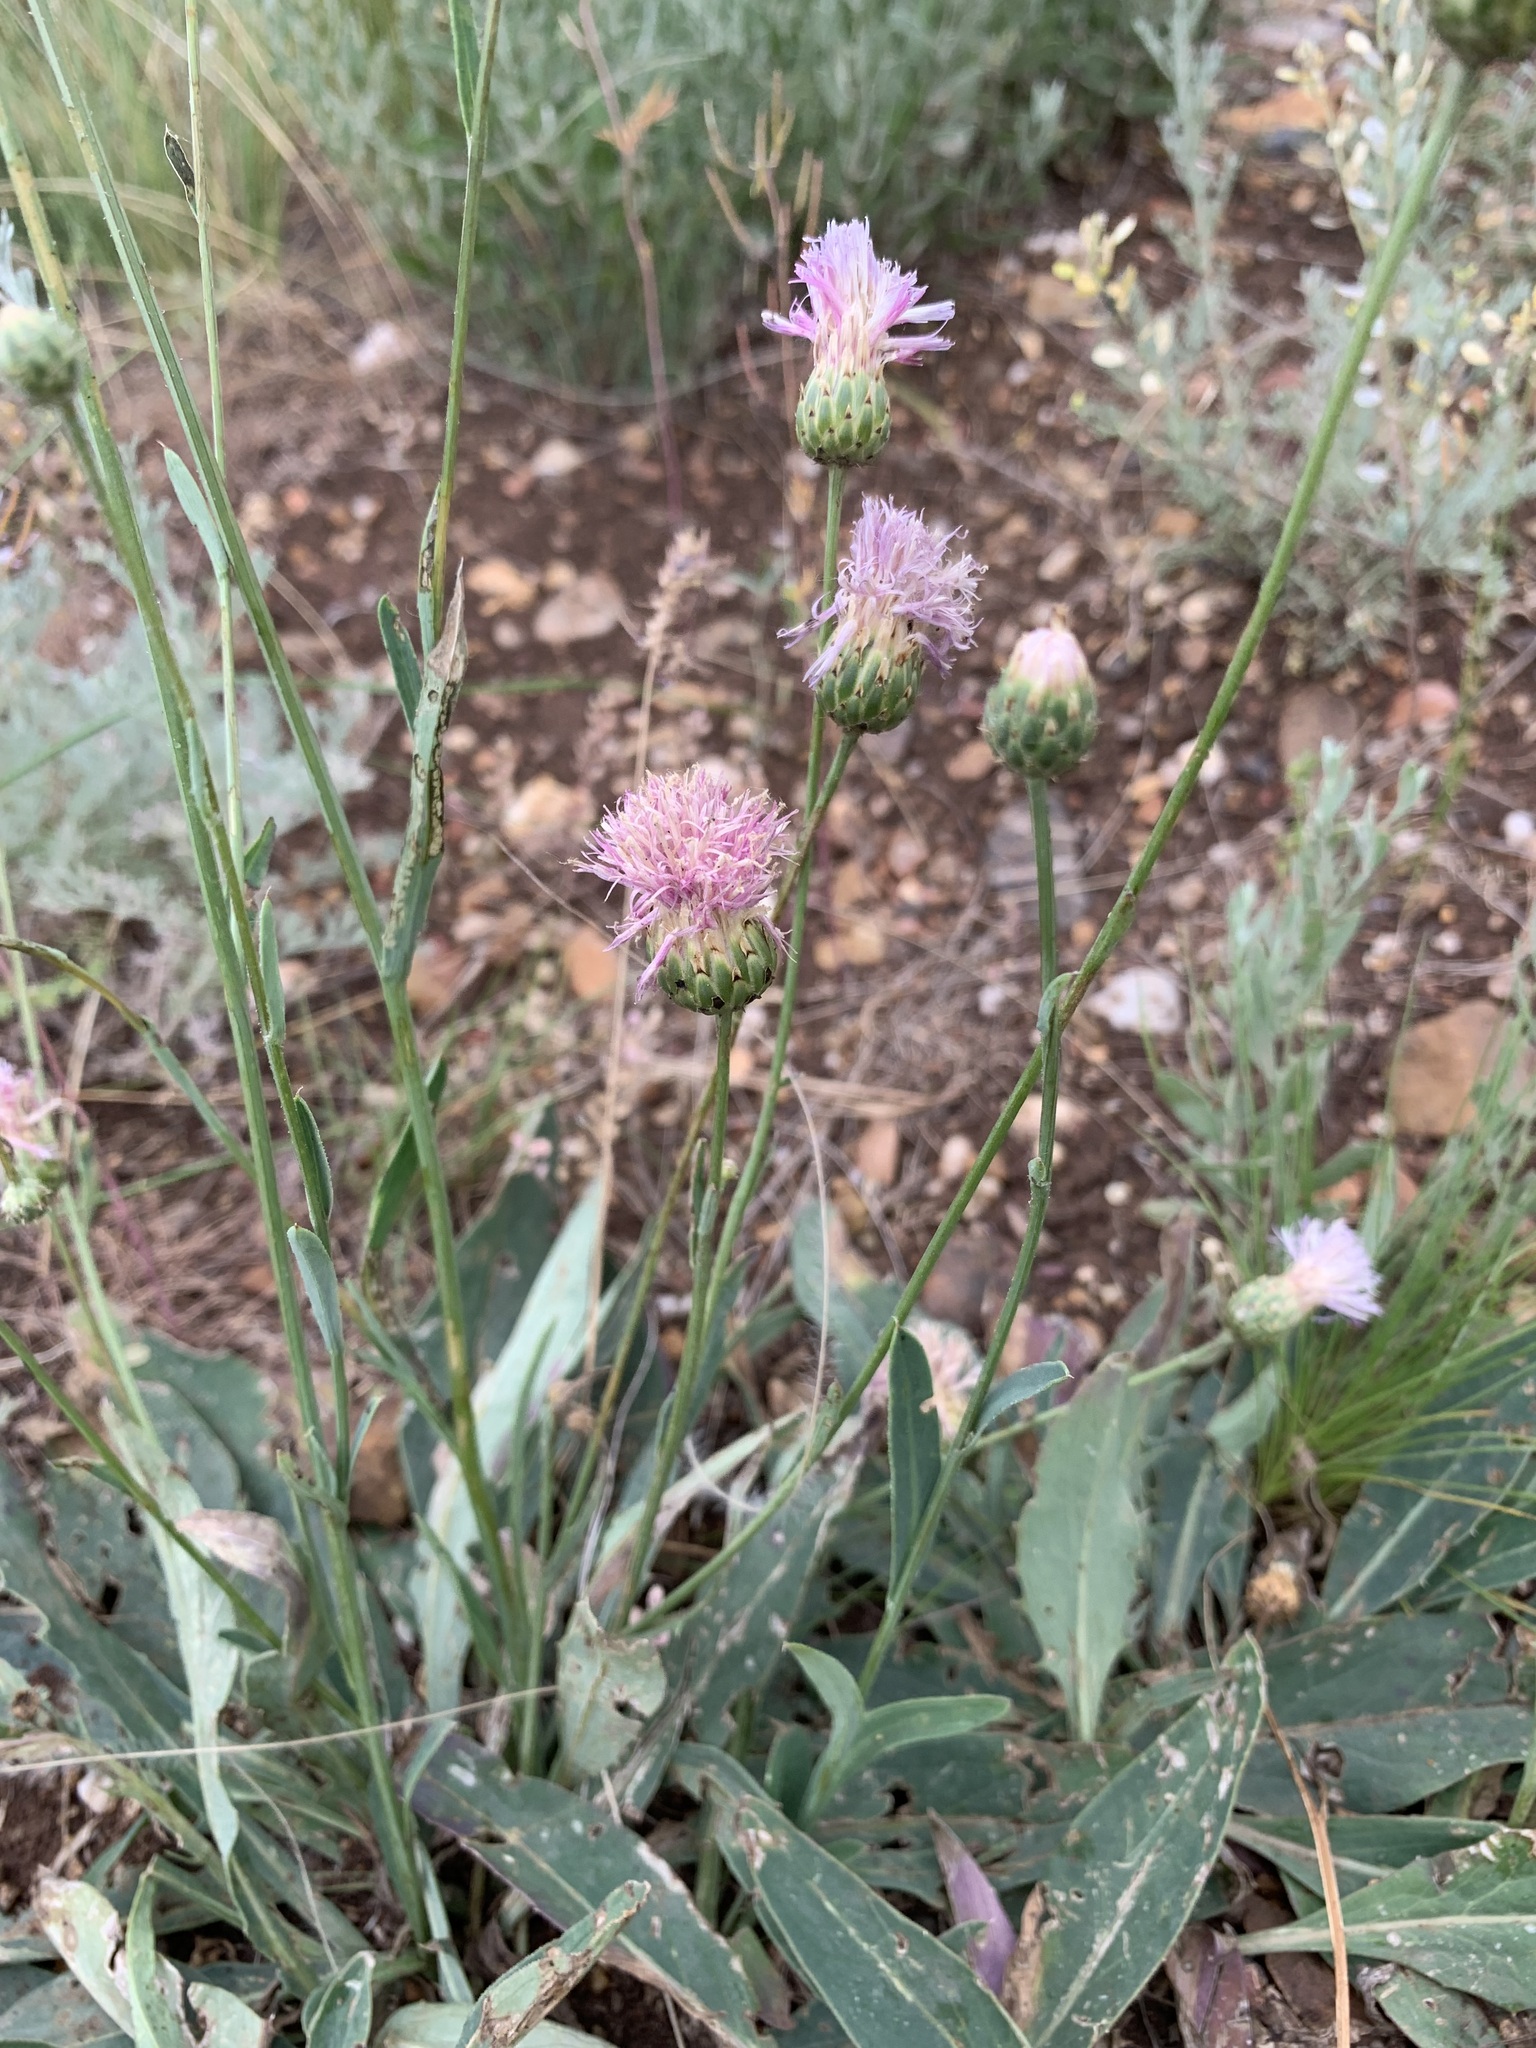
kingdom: Plantae
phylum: Tracheophyta
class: Magnoliopsida
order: Asterales
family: Asteraceae
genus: Klasea
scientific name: Klasea cardunculus
